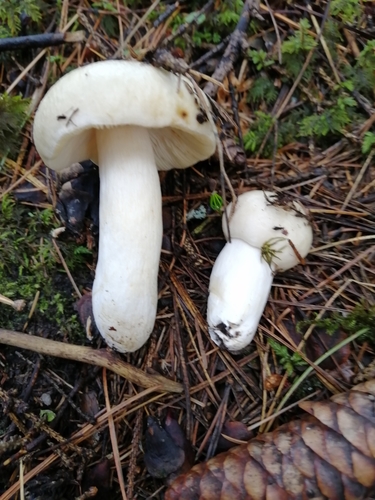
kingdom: Fungi
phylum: Basidiomycota
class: Agaricomycetes
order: Russulales
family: Russulaceae
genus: Russula
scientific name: Russula
